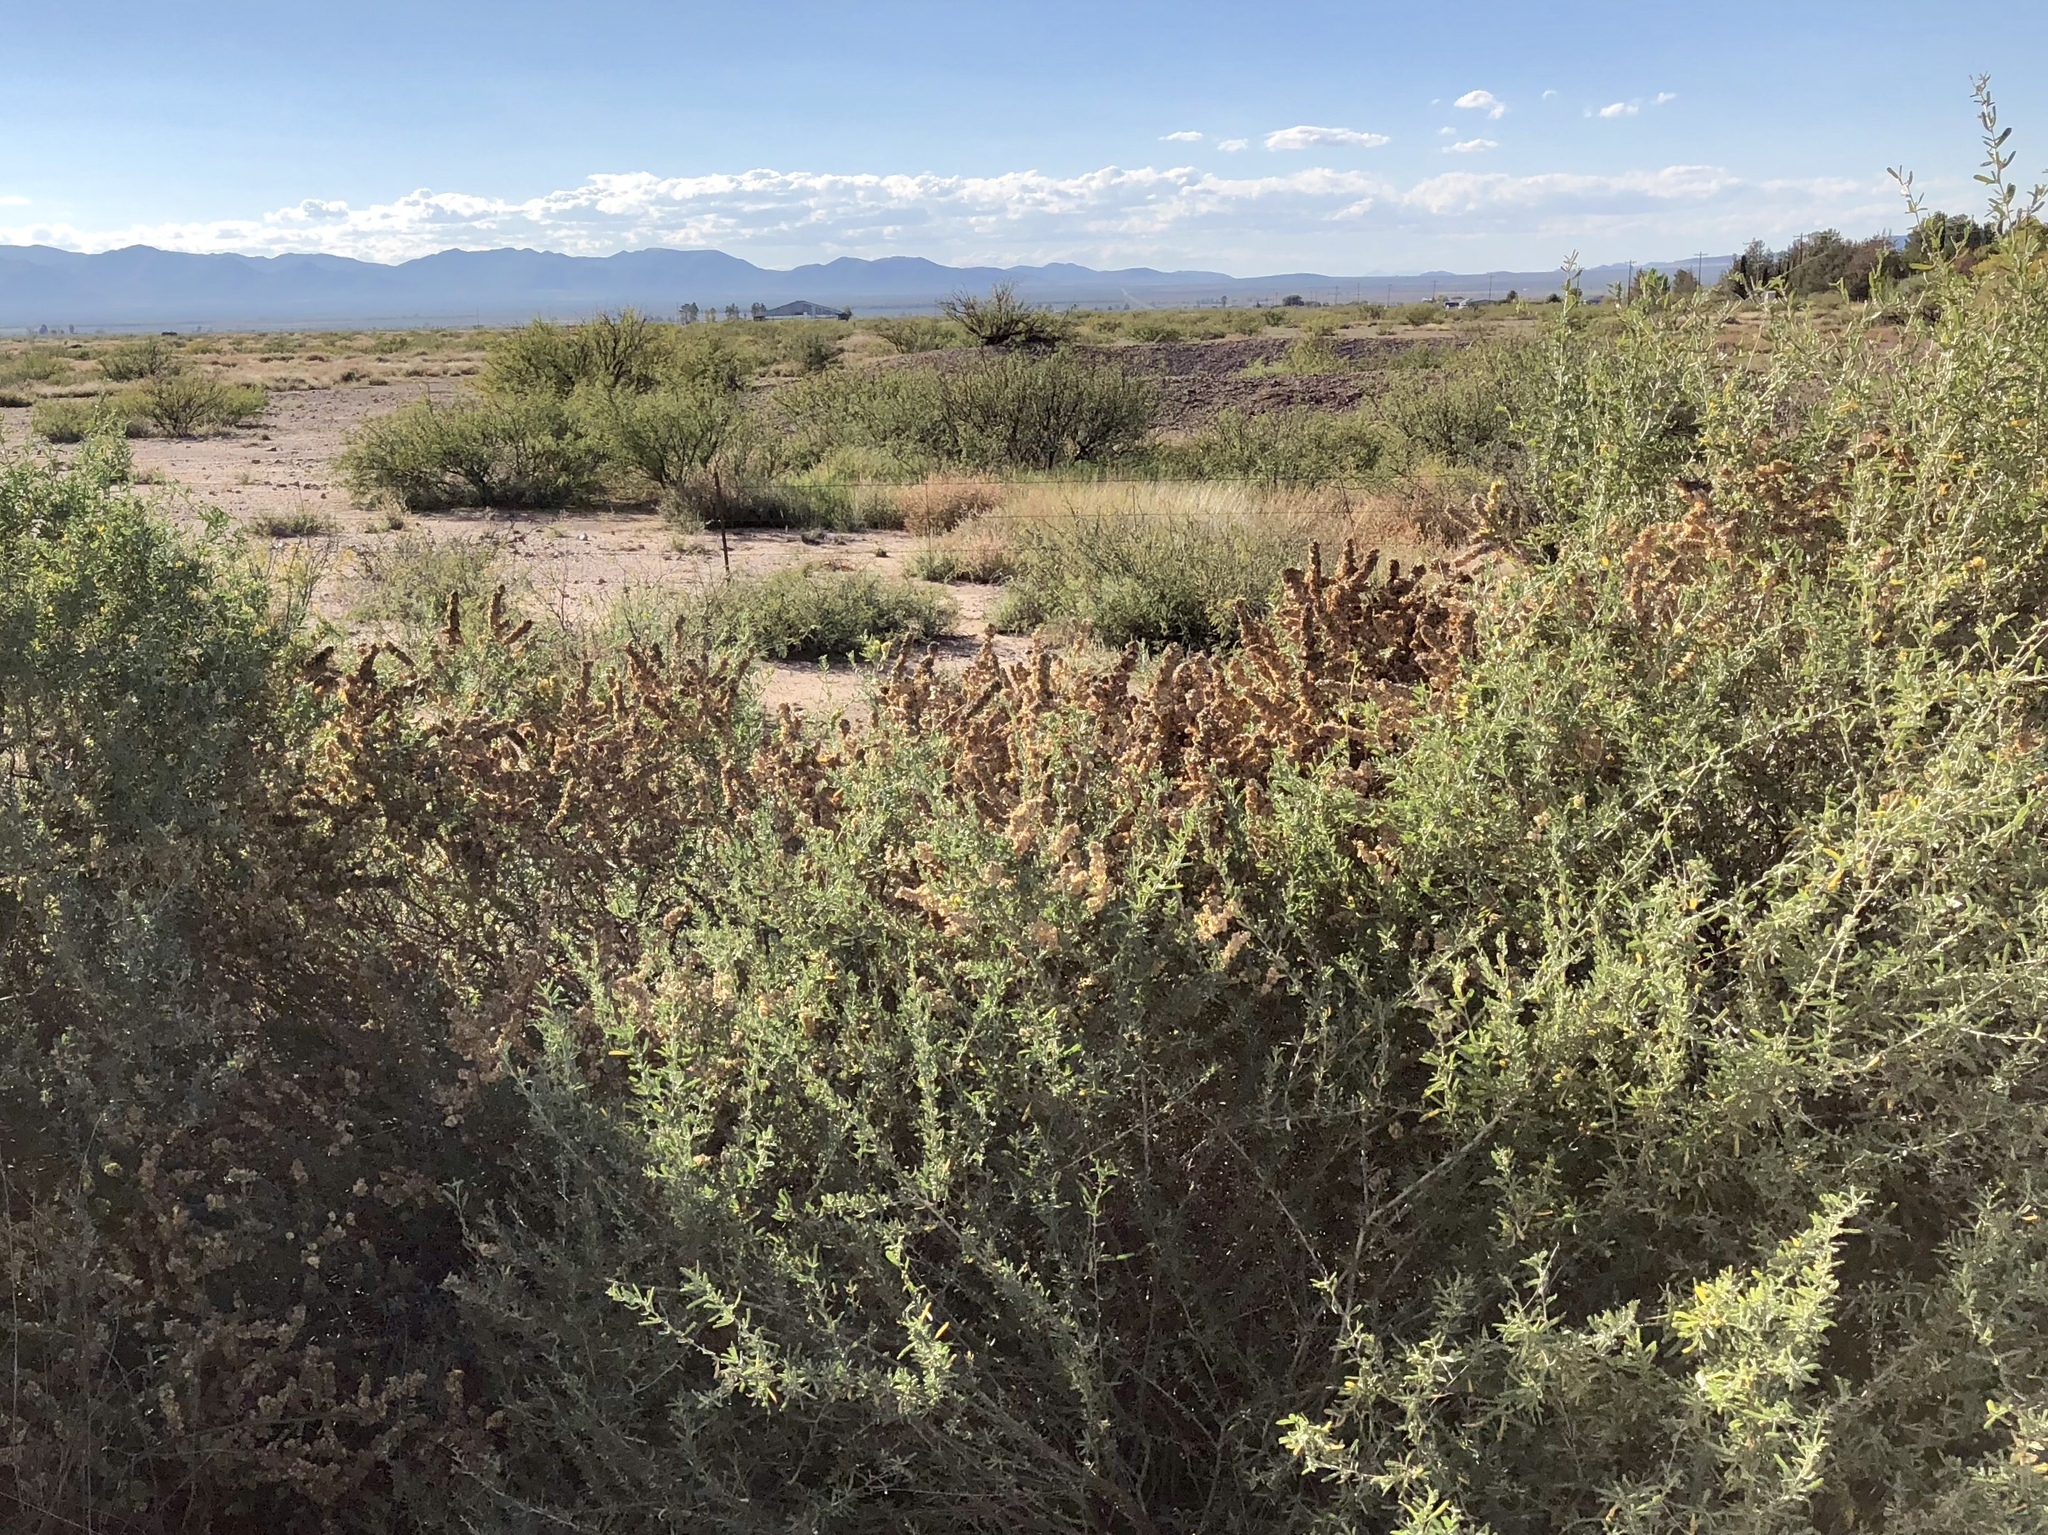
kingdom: Plantae
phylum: Tracheophyta
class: Magnoliopsida
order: Caryophyllales
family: Amaranthaceae
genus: Atriplex
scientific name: Atriplex canescens
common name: Four-wing saltbush
